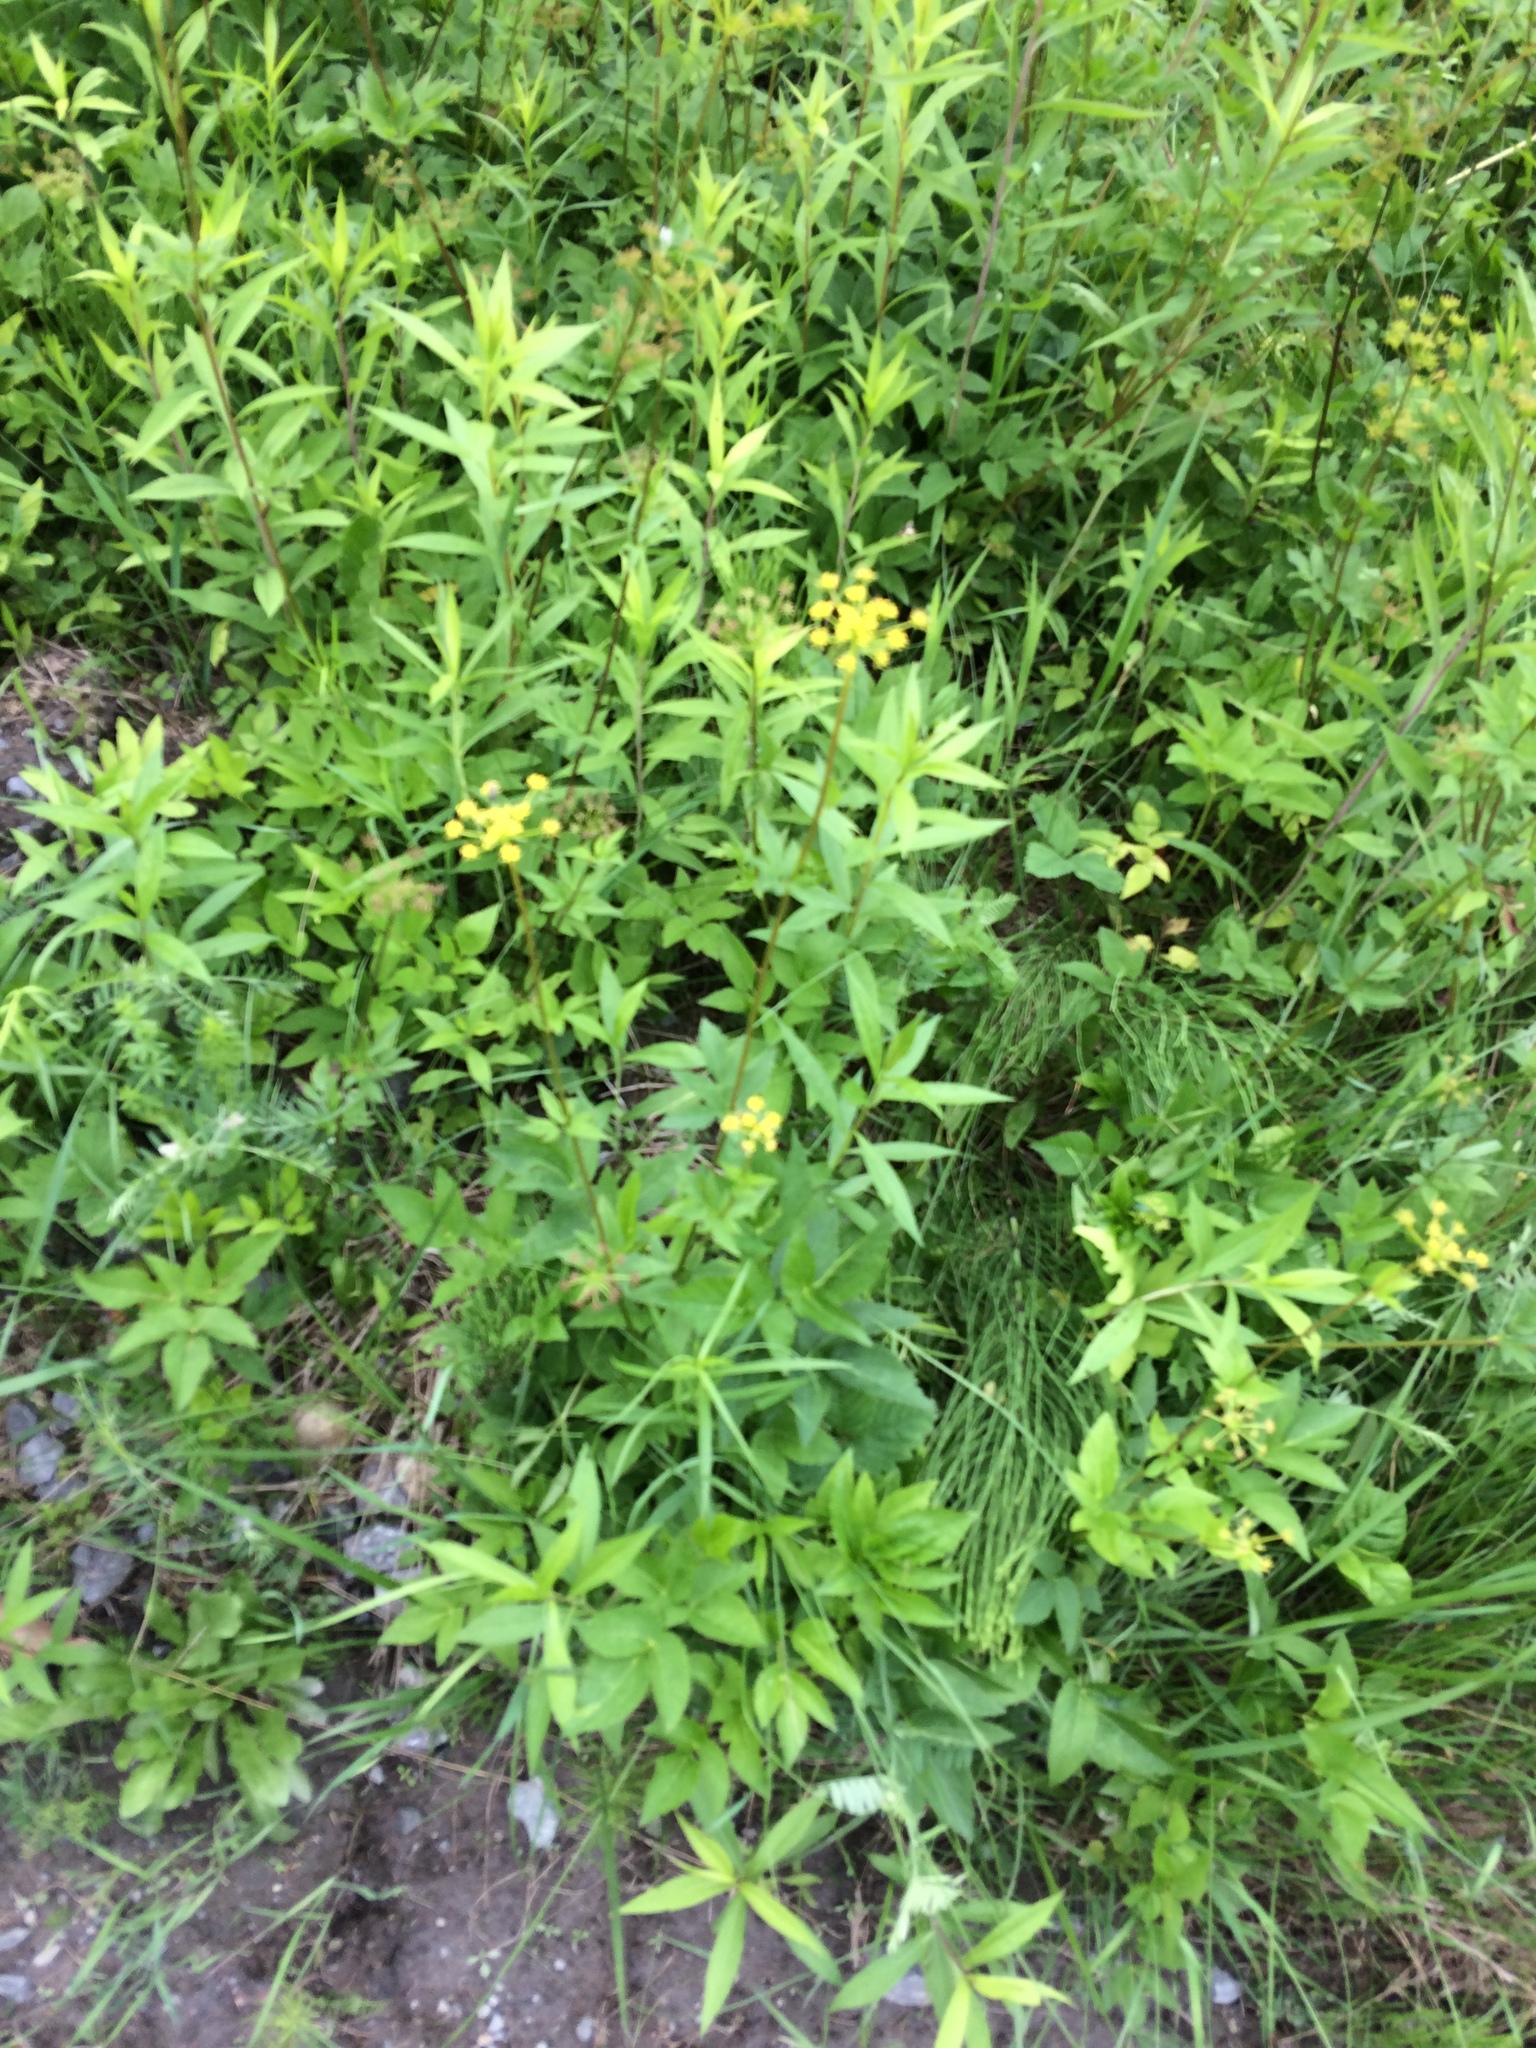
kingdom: Plantae
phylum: Tracheophyta
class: Magnoliopsida
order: Apiales
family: Apiaceae
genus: Zizia
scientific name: Zizia aurea
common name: Golden alexanders
